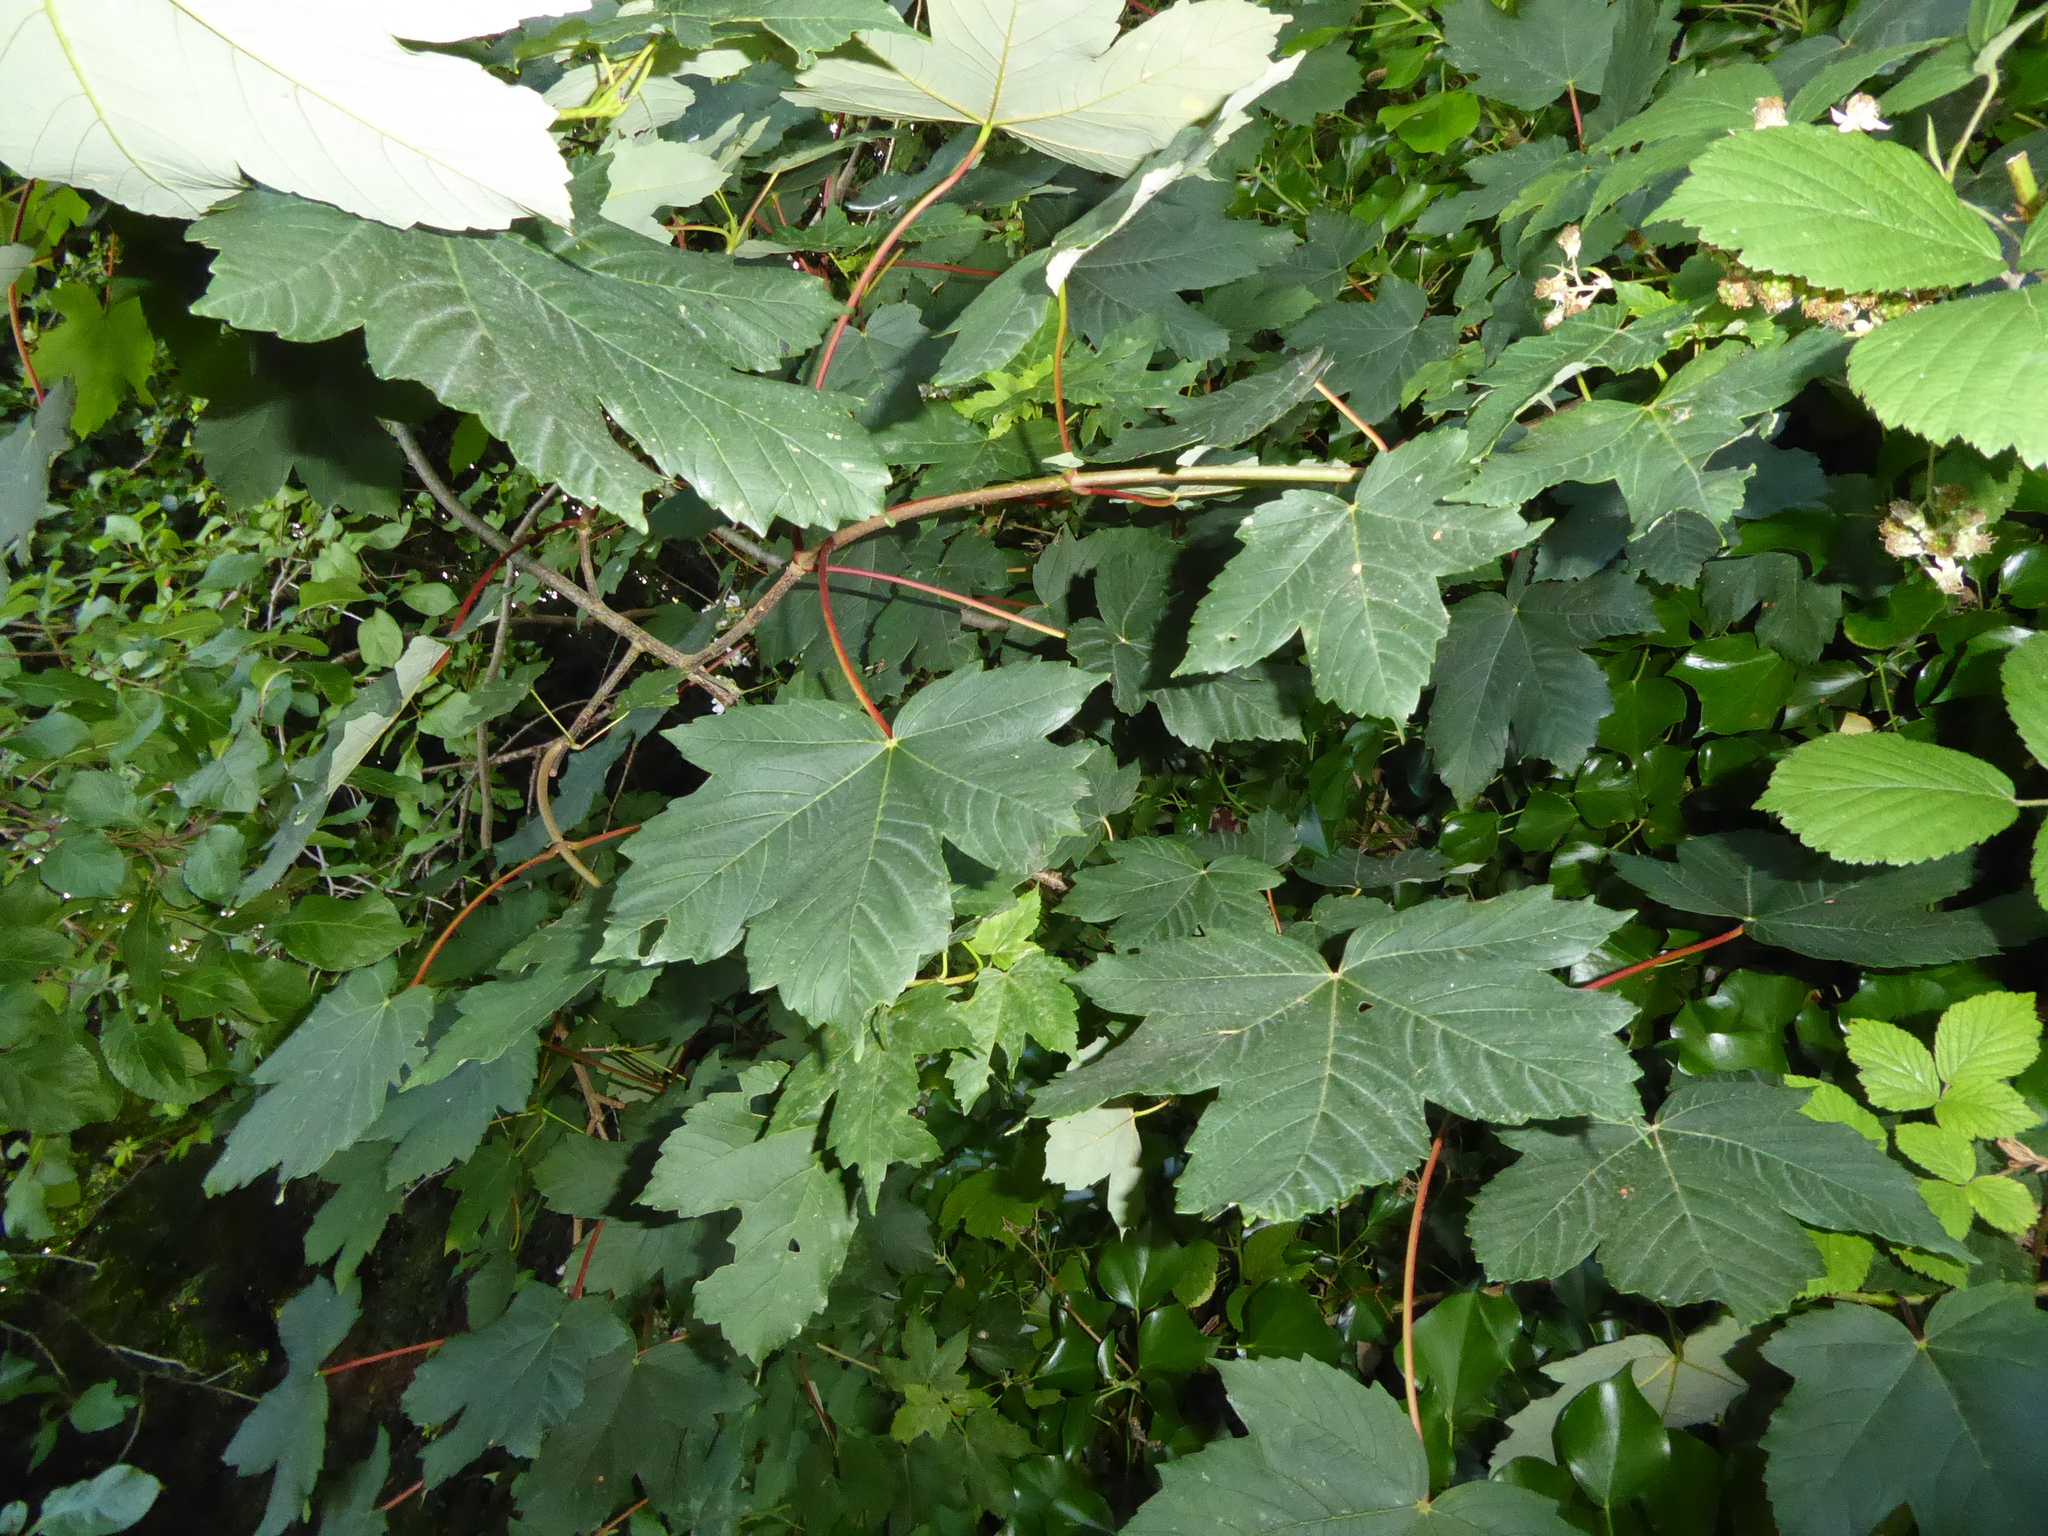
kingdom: Plantae
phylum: Tracheophyta
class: Magnoliopsida
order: Sapindales
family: Sapindaceae
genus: Acer
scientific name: Acer pseudoplatanus
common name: Sycamore
